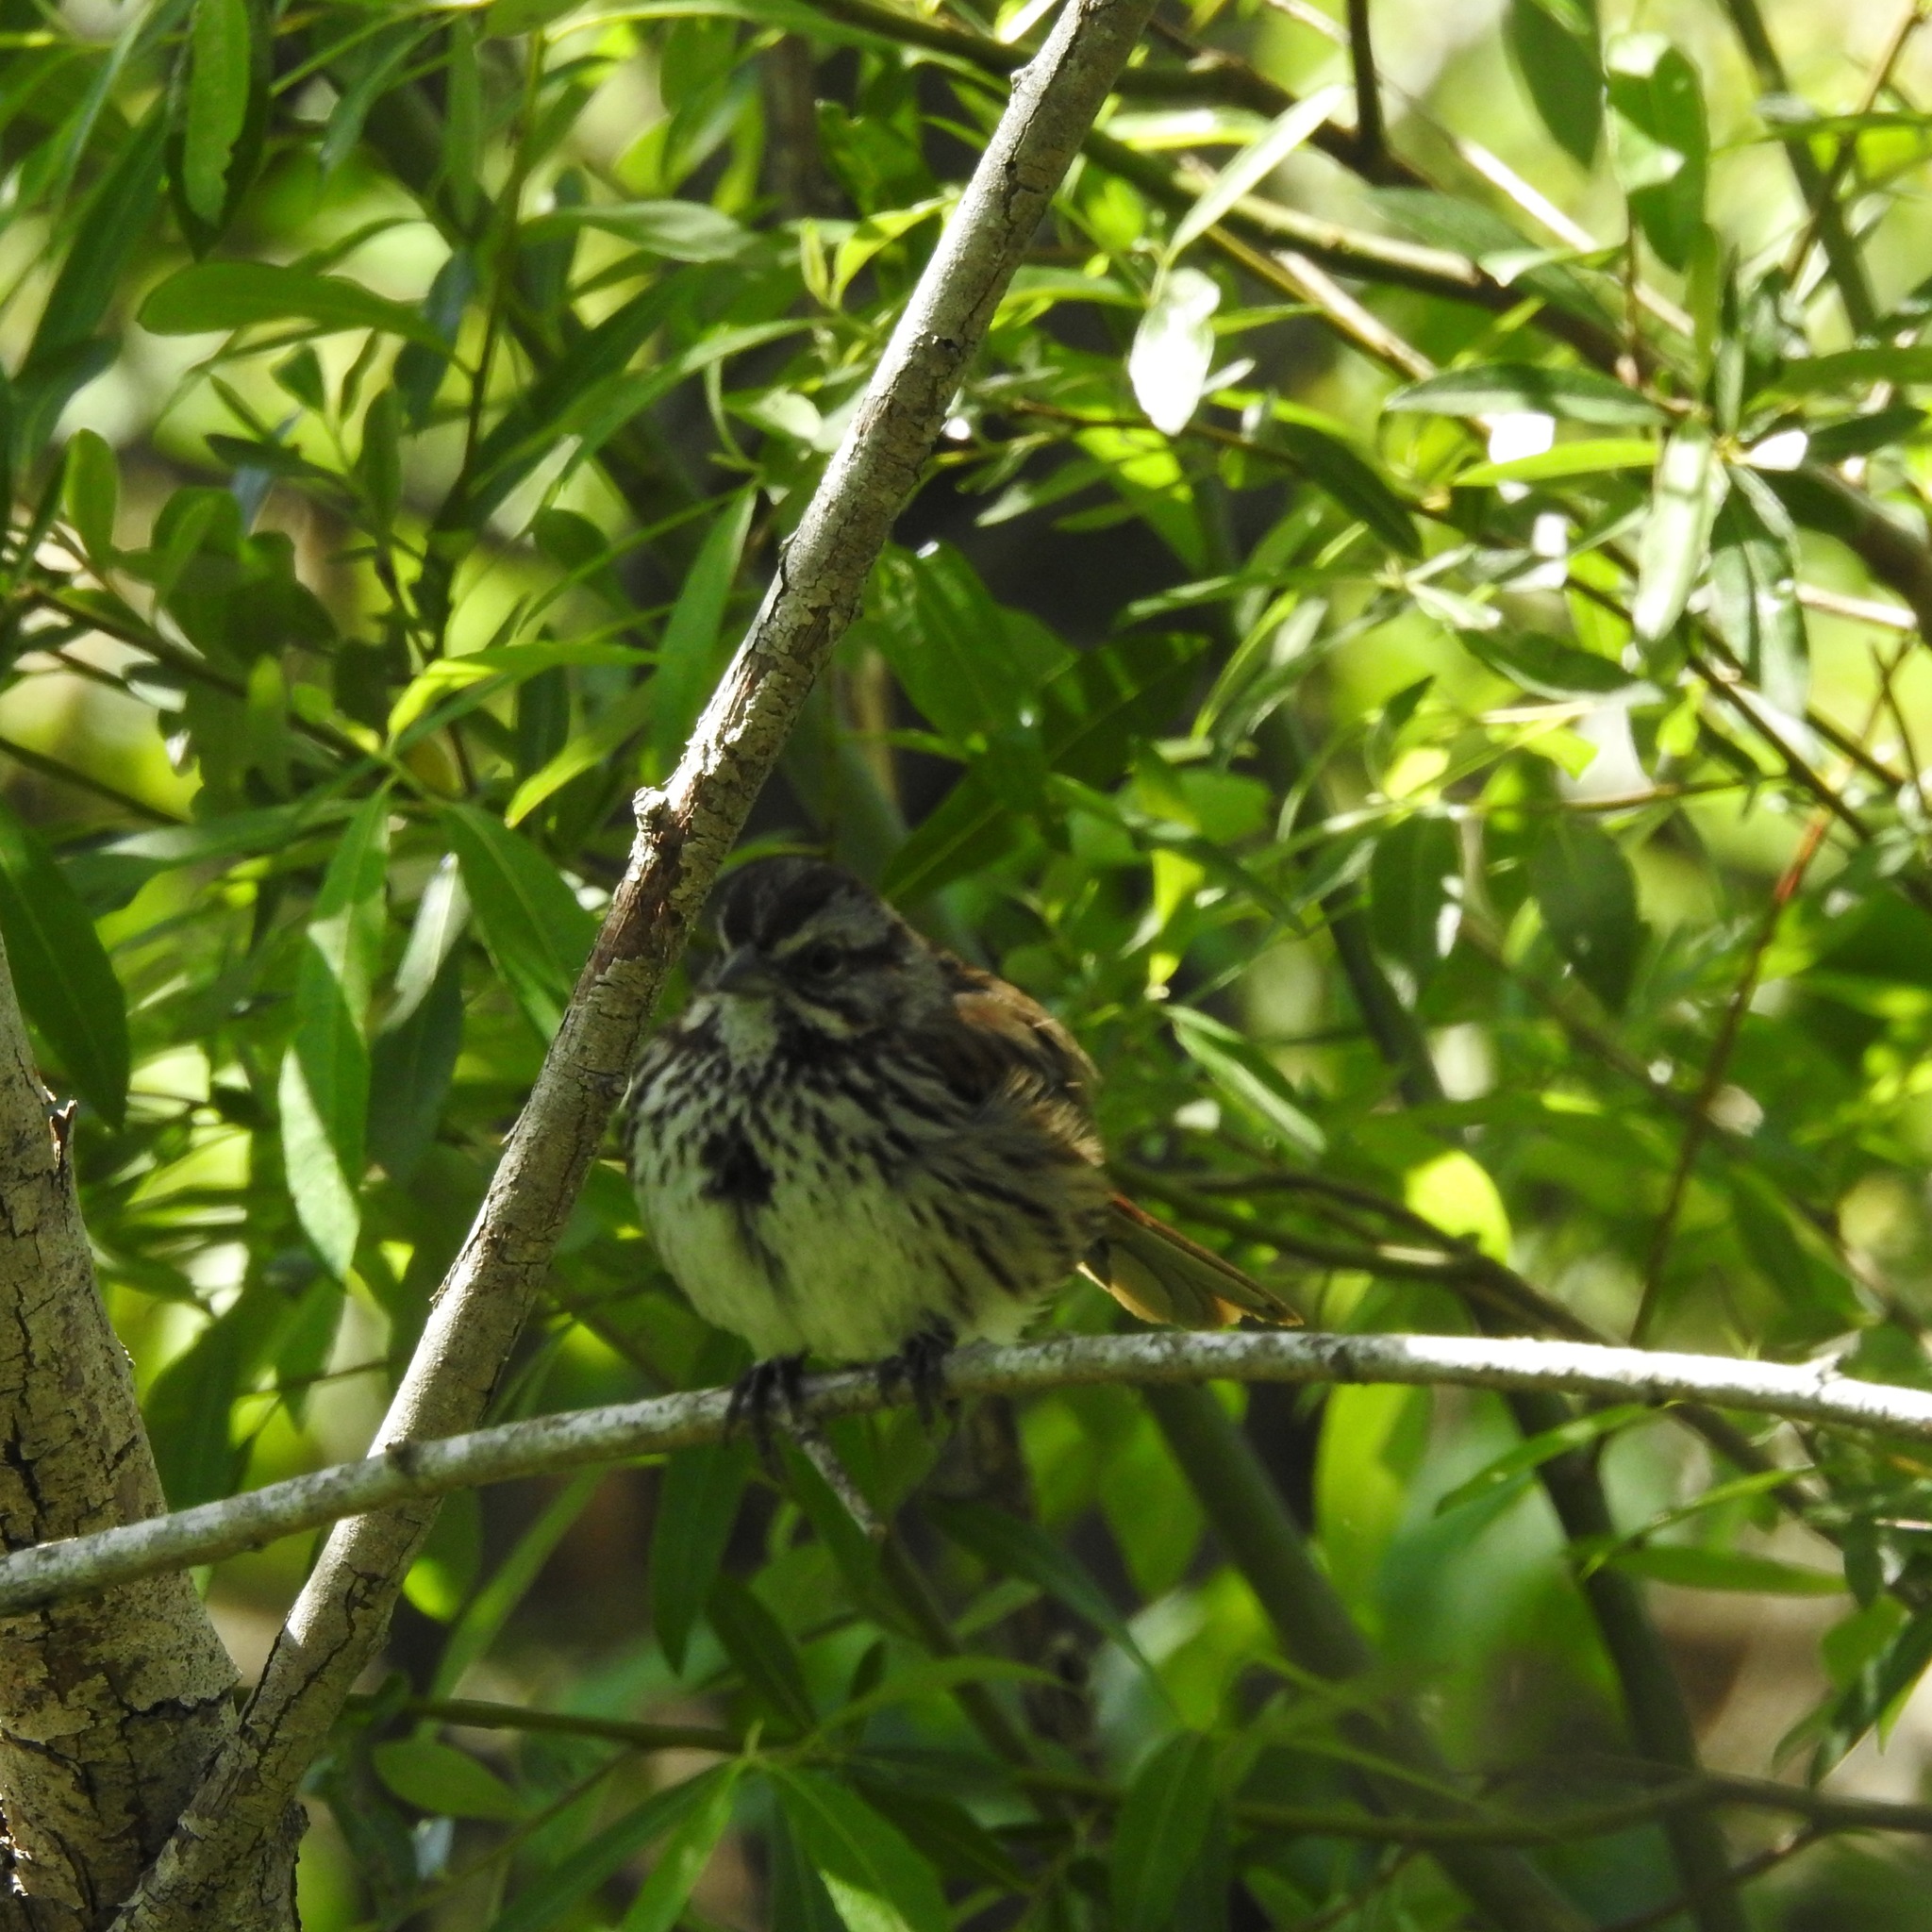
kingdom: Animalia
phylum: Chordata
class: Aves
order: Passeriformes
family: Passerellidae
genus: Melospiza
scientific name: Melospiza melodia
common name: Song sparrow
